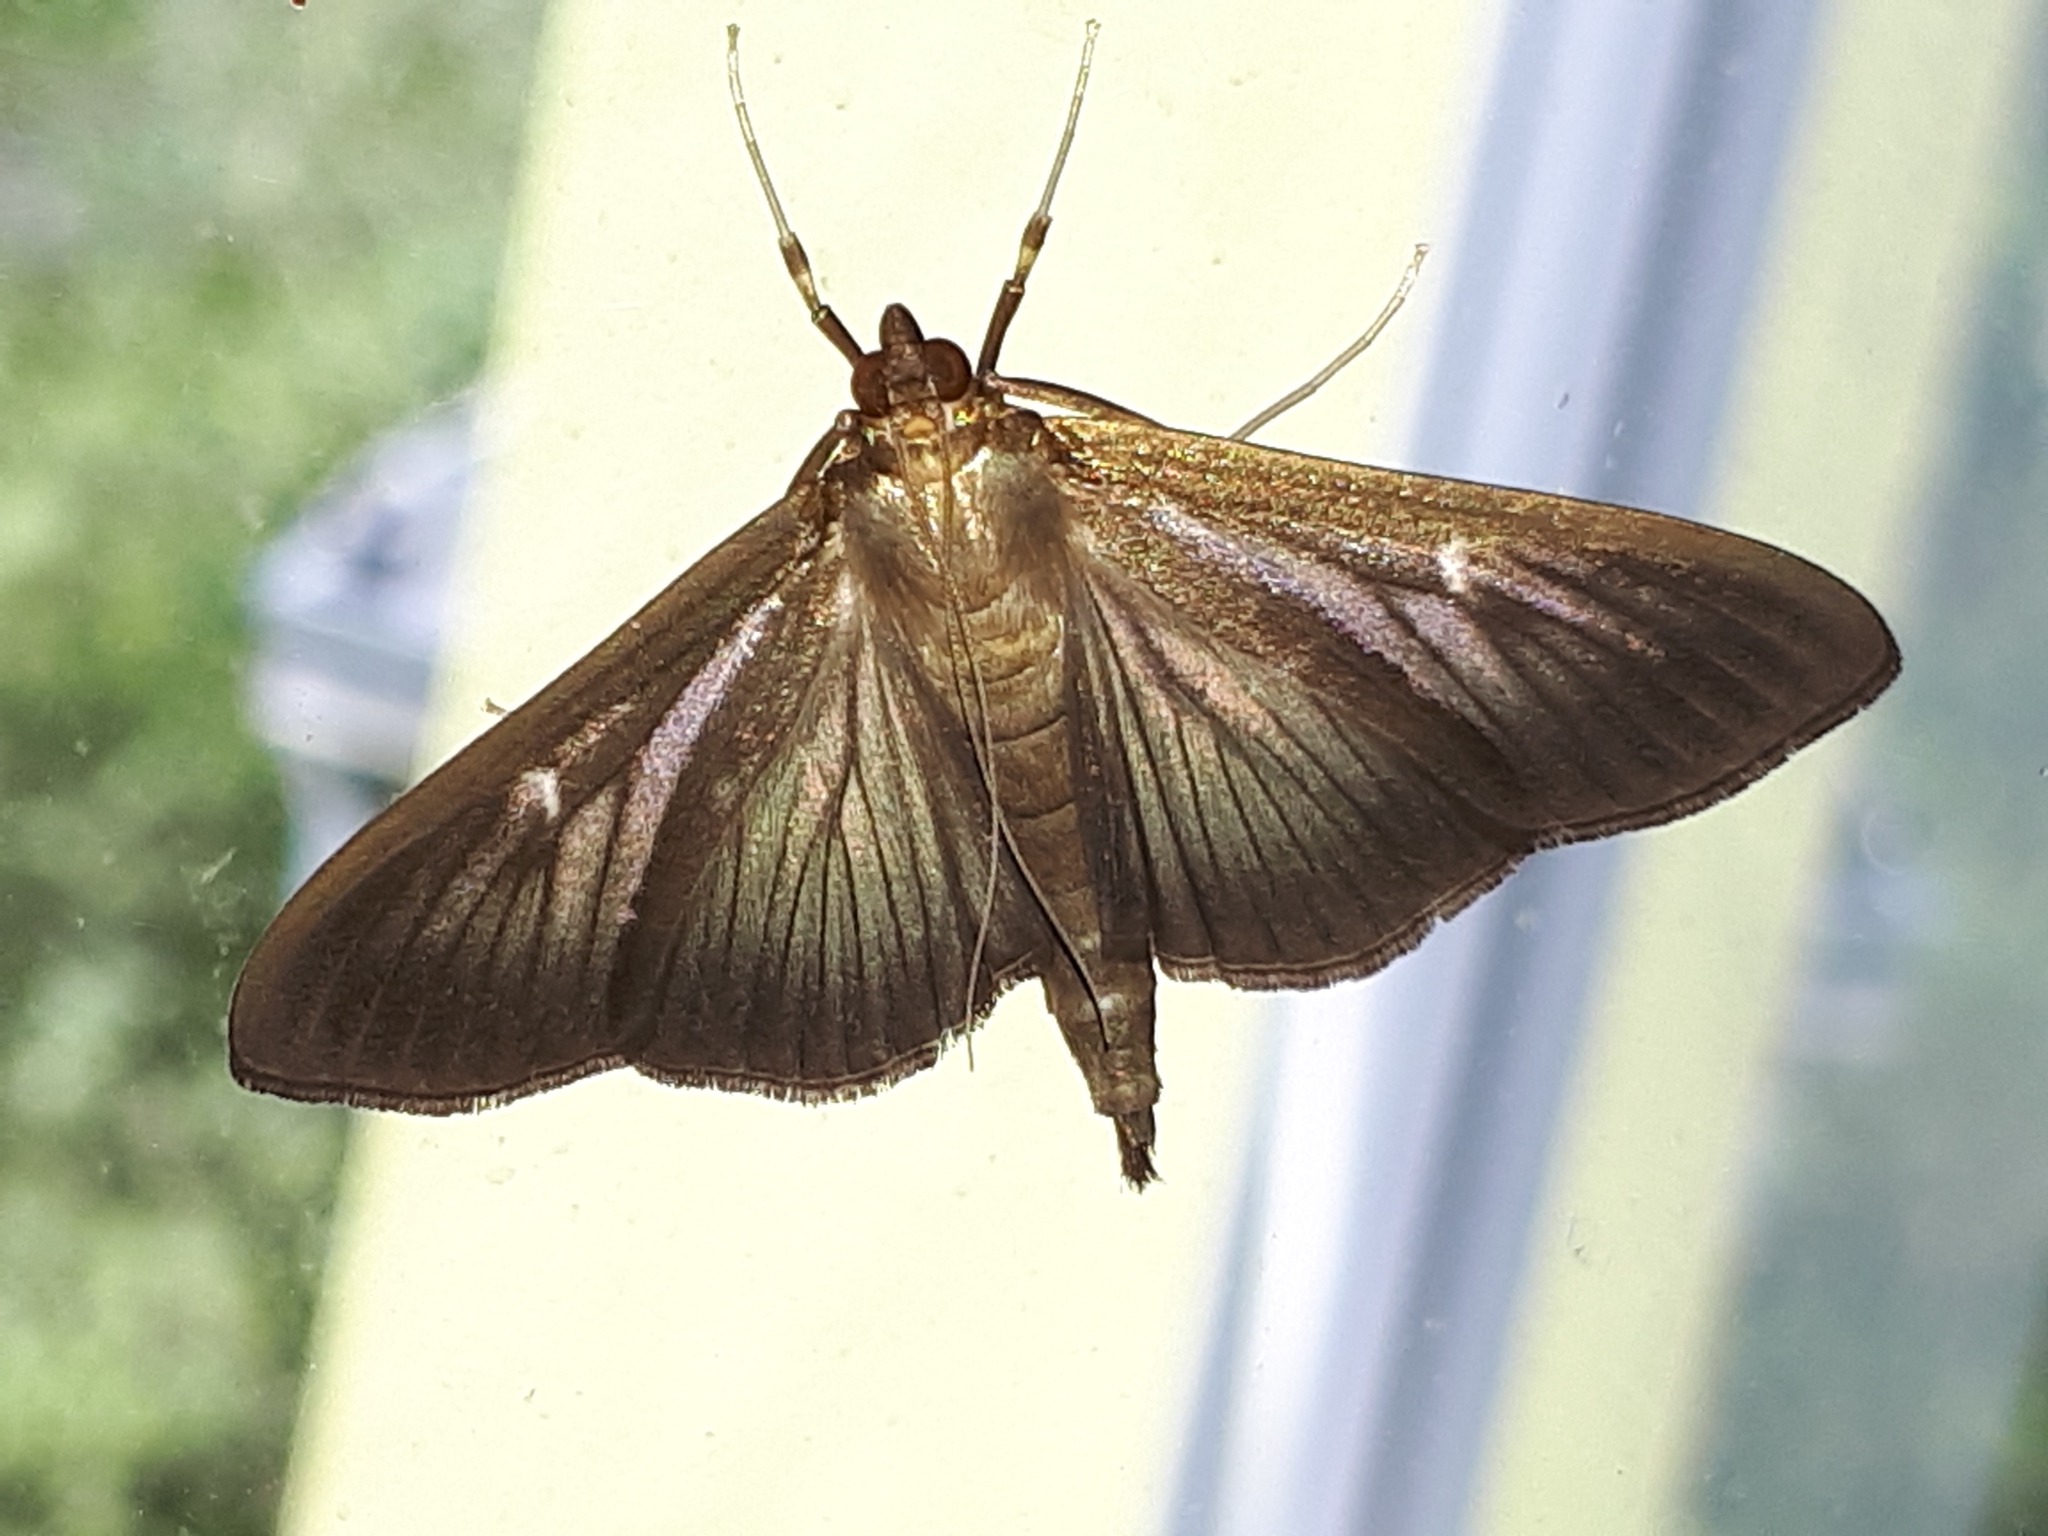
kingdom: Animalia
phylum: Arthropoda
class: Insecta
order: Lepidoptera
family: Crambidae
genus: Cydalima
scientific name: Cydalima perspectalis
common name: Box tree moth
